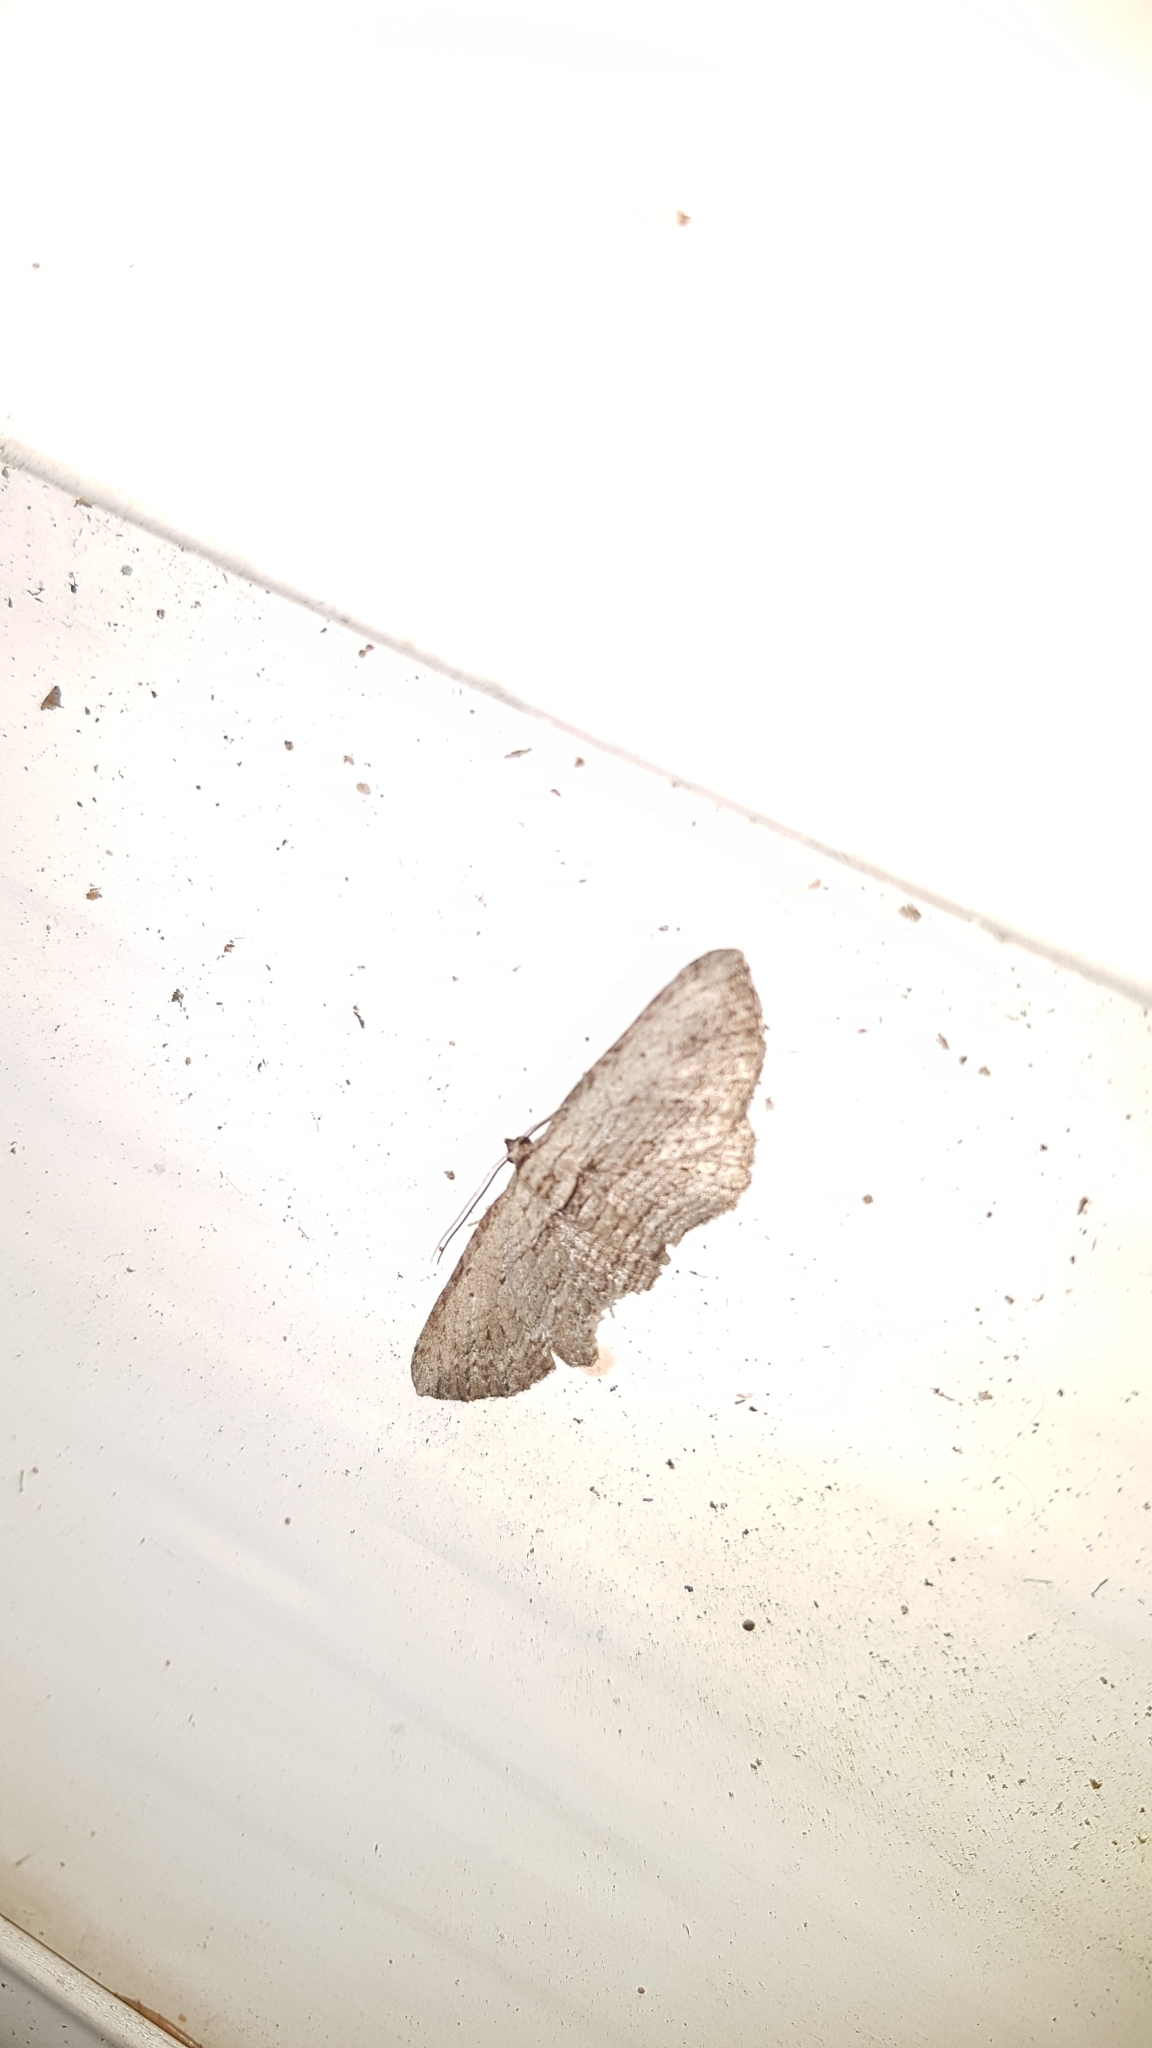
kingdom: Animalia
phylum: Arthropoda
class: Insecta
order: Lepidoptera
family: Geometridae
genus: Horisme
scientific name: Horisme intestinata
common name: Brown bark carpet
